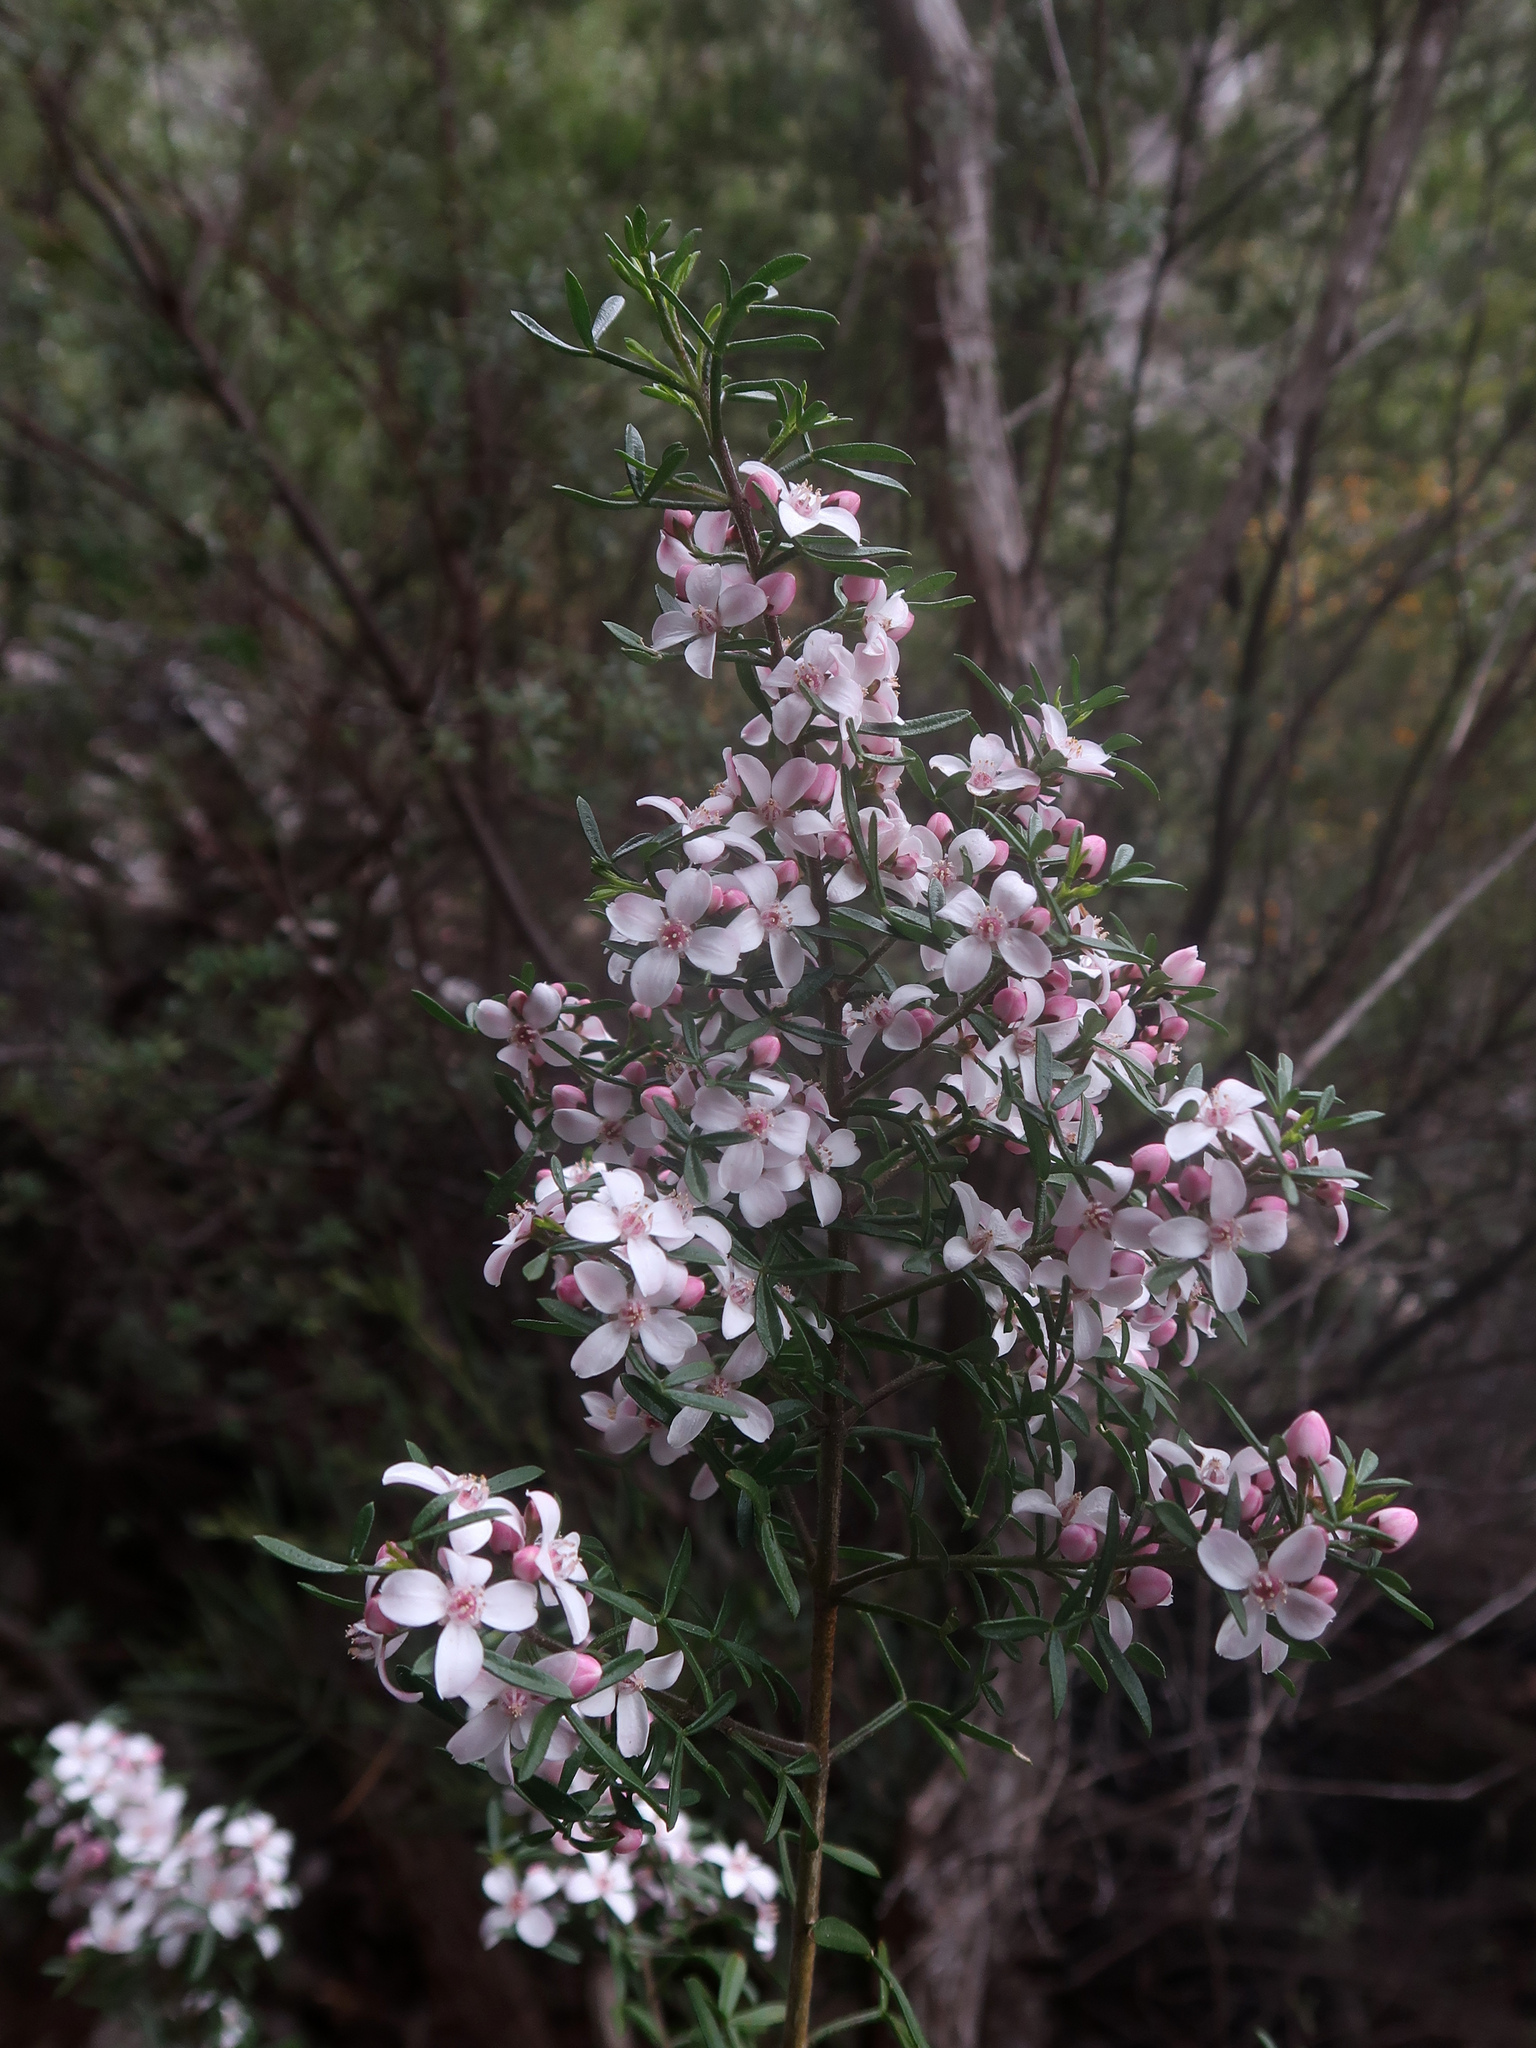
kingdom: Plantae
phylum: Tracheophyta
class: Magnoliopsida
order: Sapindales
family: Rutaceae
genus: Cyanothamnus
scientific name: Cyanothamnus anemonifolius
